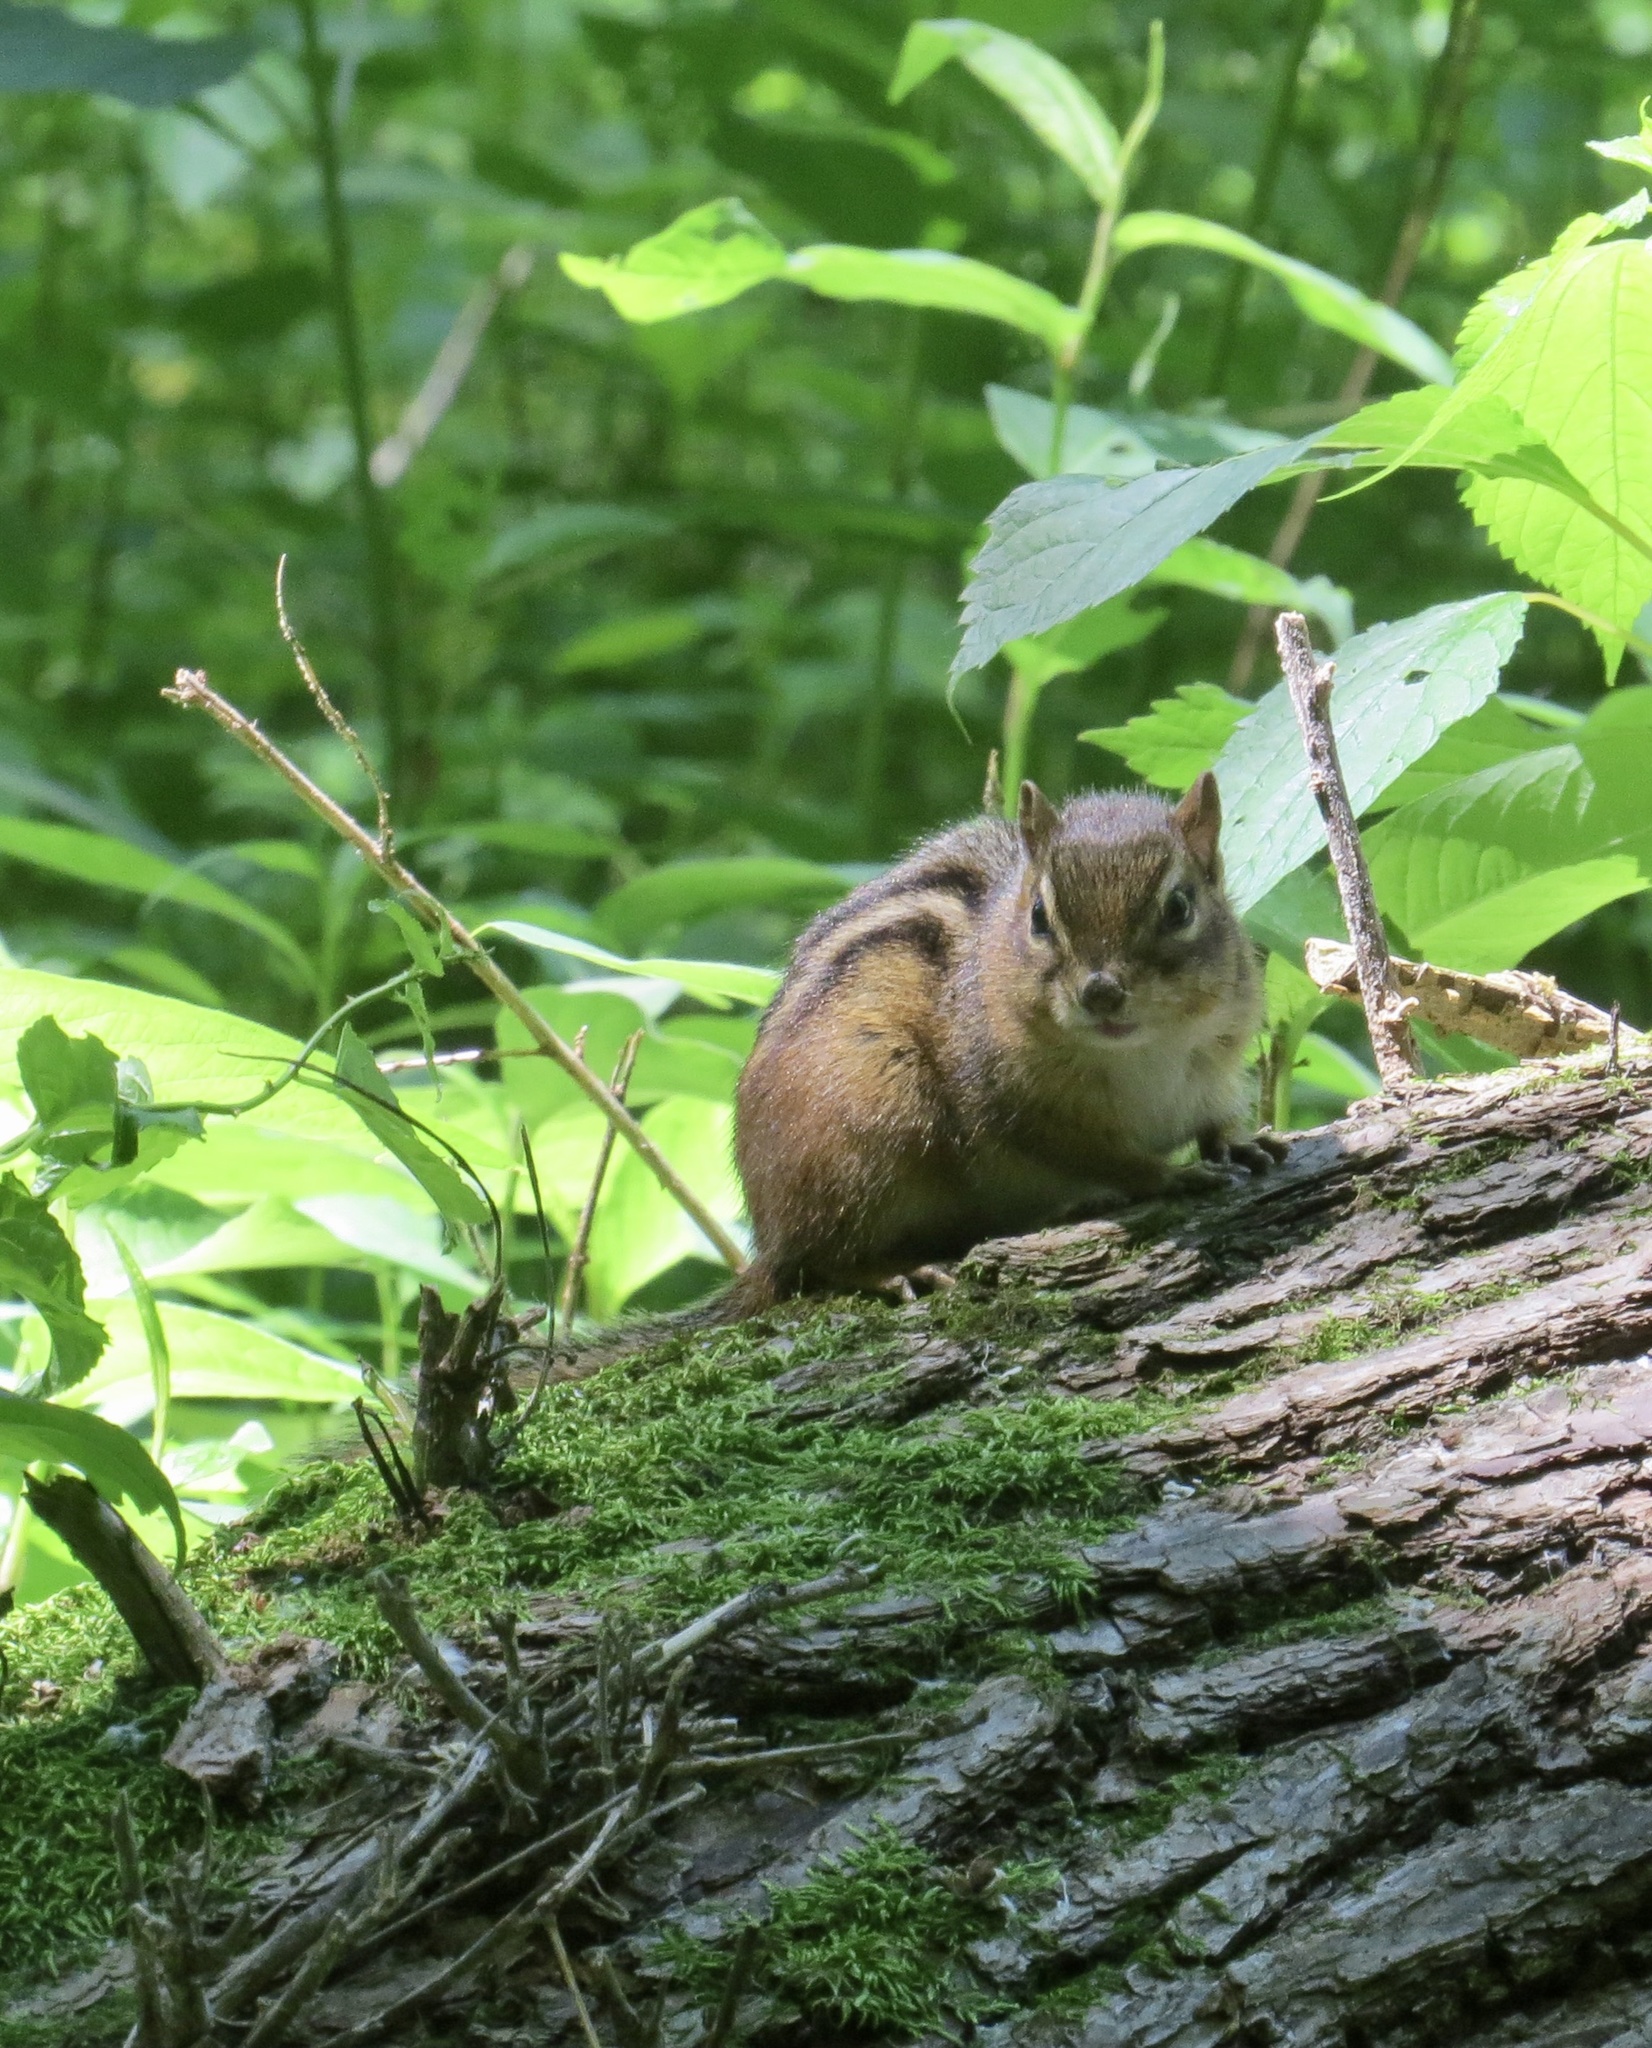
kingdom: Animalia
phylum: Chordata
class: Mammalia
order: Rodentia
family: Sciuridae
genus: Tamias
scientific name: Tamias striatus
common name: Eastern chipmunk
